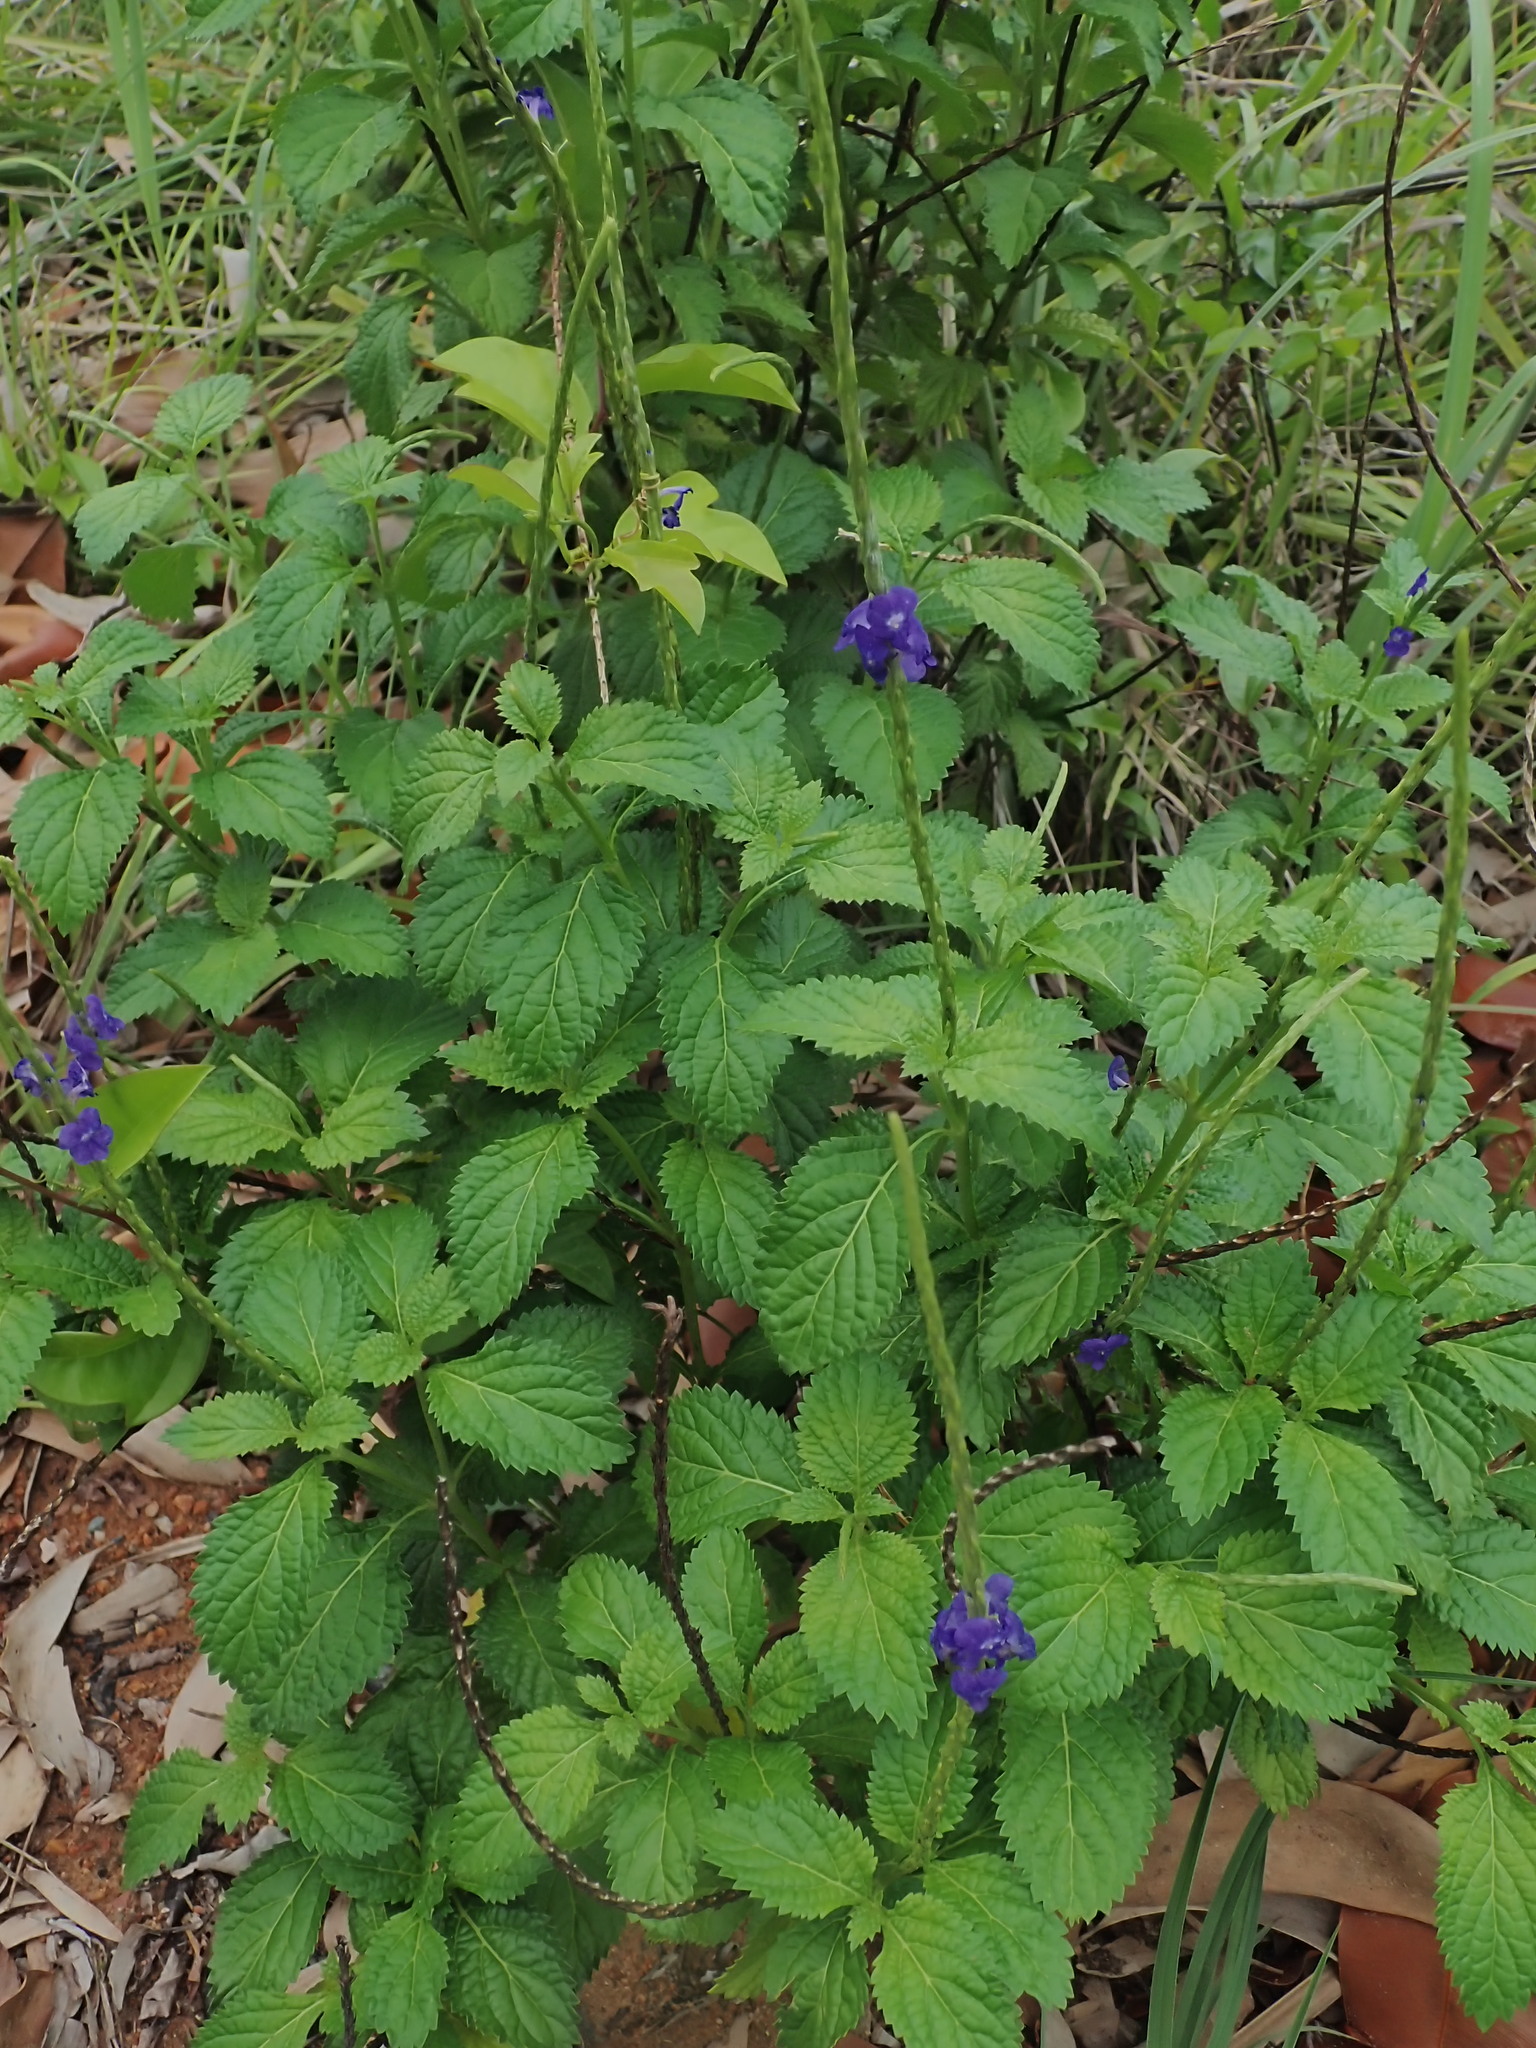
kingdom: Plantae
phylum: Tracheophyta
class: Magnoliopsida
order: Lamiales
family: Verbenaceae
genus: Stachytarpheta
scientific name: Stachytarpheta jamaicensis
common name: Light-blue snakeweed
